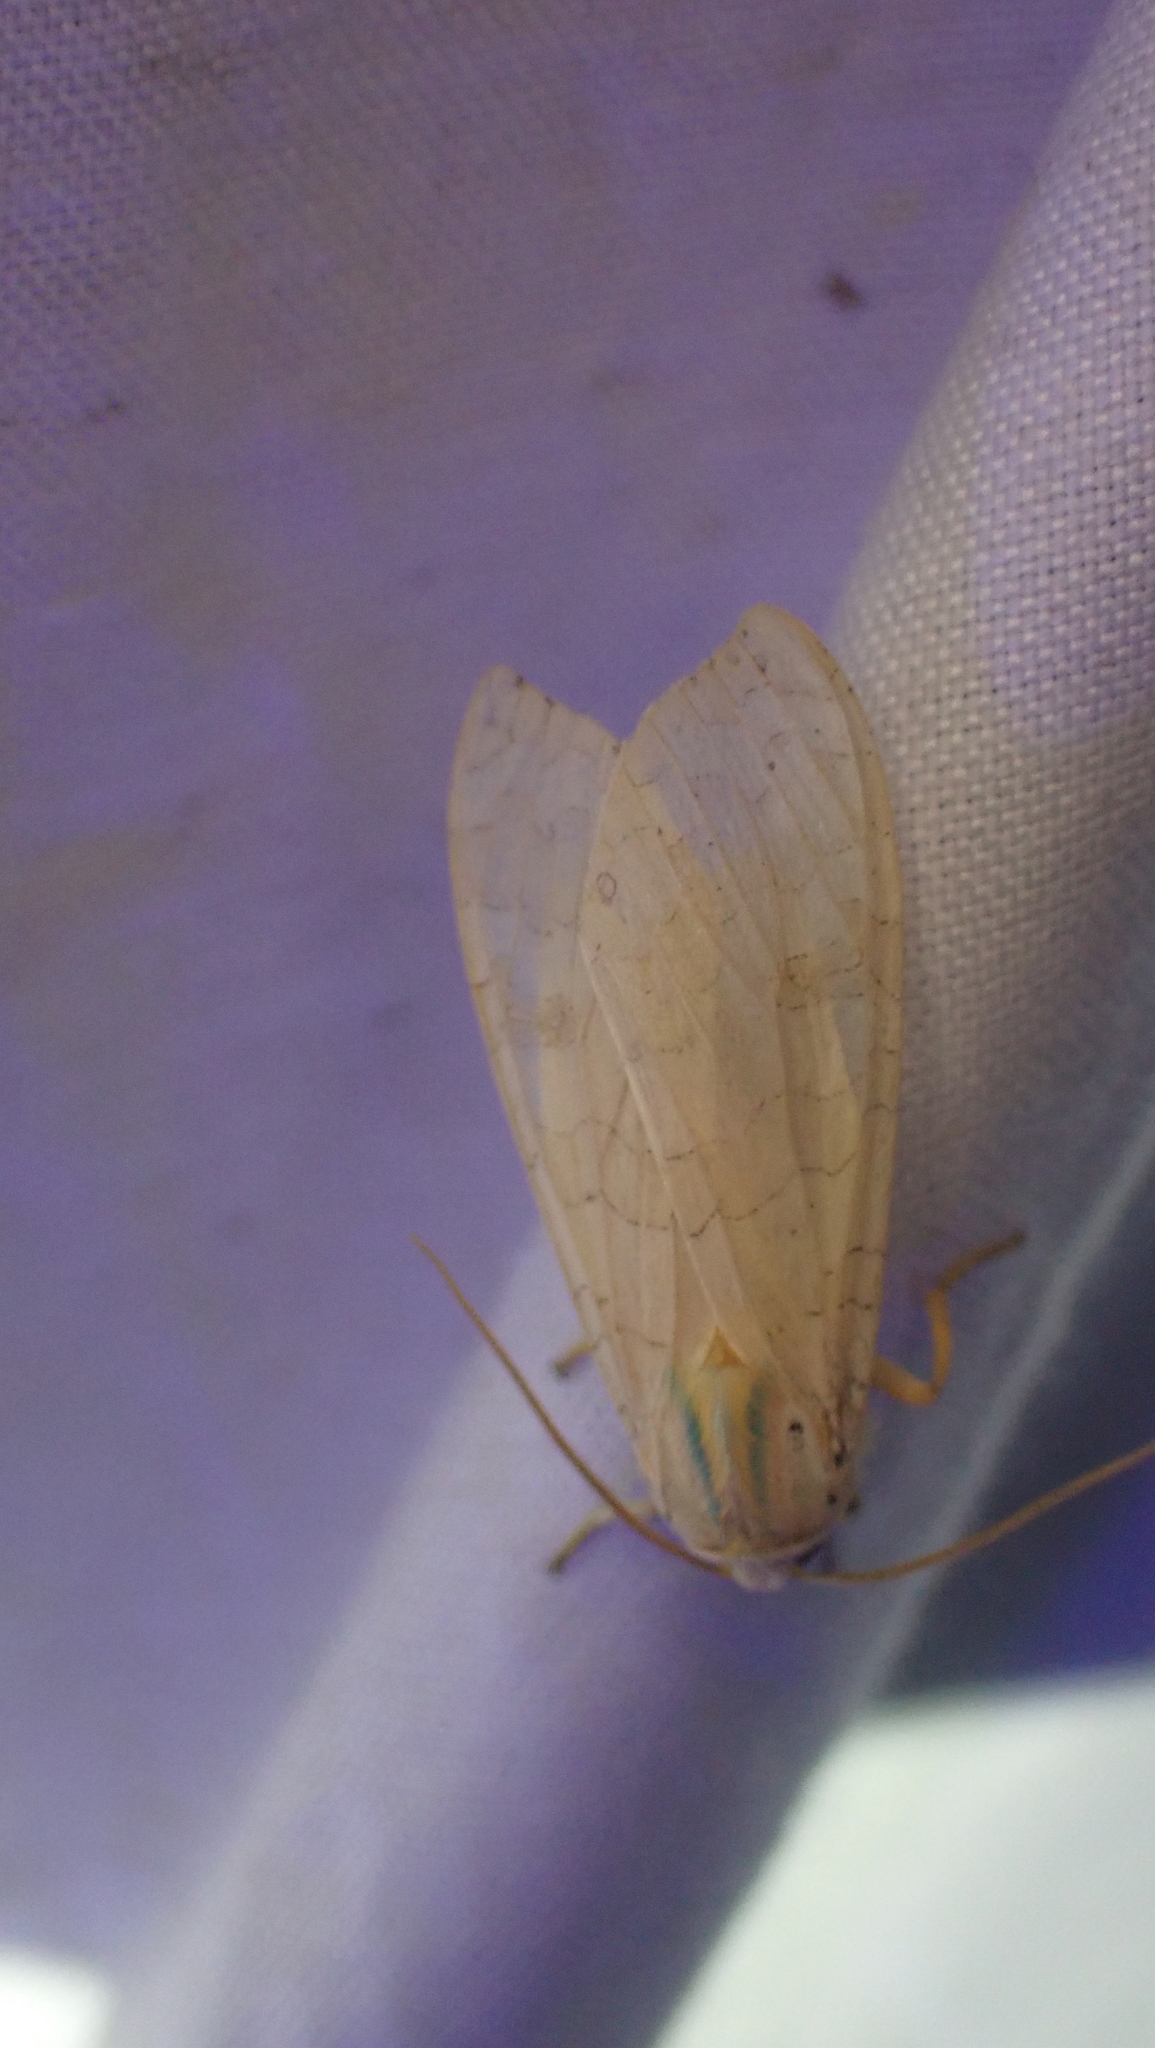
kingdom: Animalia
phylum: Arthropoda
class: Insecta
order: Lepidoptera
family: Erebidae
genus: Halysidota
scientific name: Halysidota
